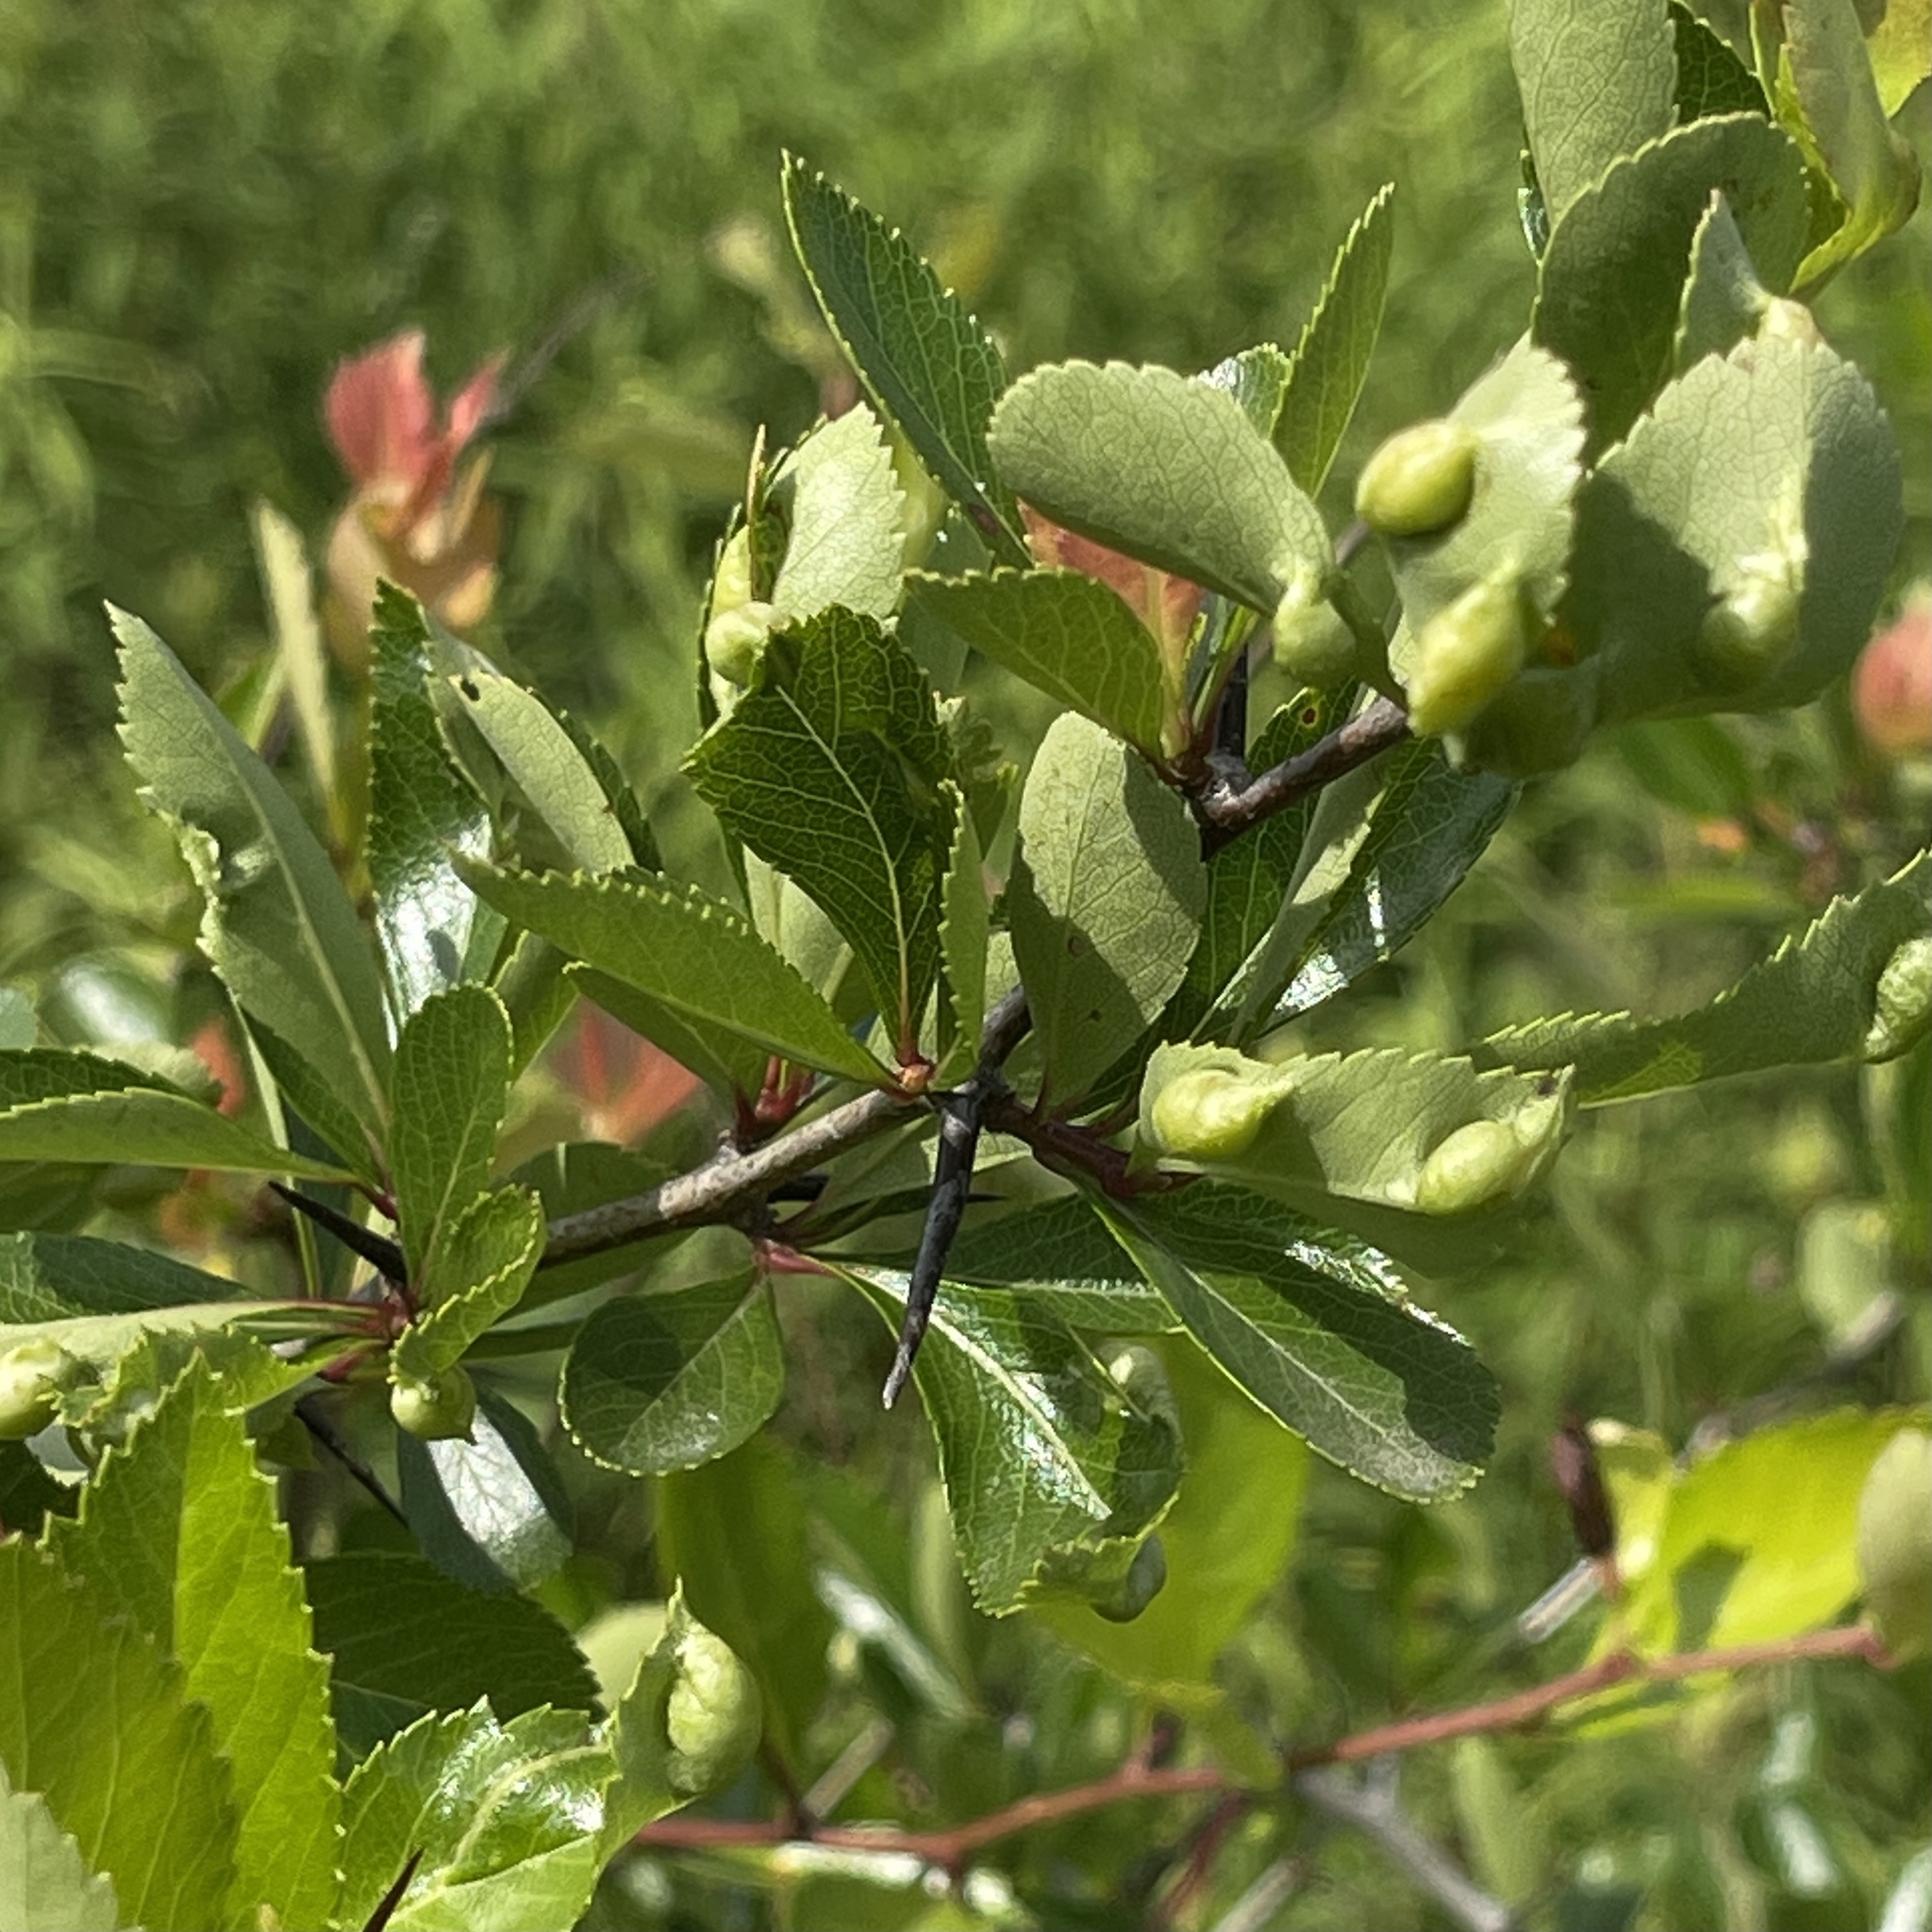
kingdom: Animalia
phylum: Arthropoda
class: Insecta
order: Diptera
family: Cecidomyiidae
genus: Blaesodiplosis
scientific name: Blaesodiplosis venae
